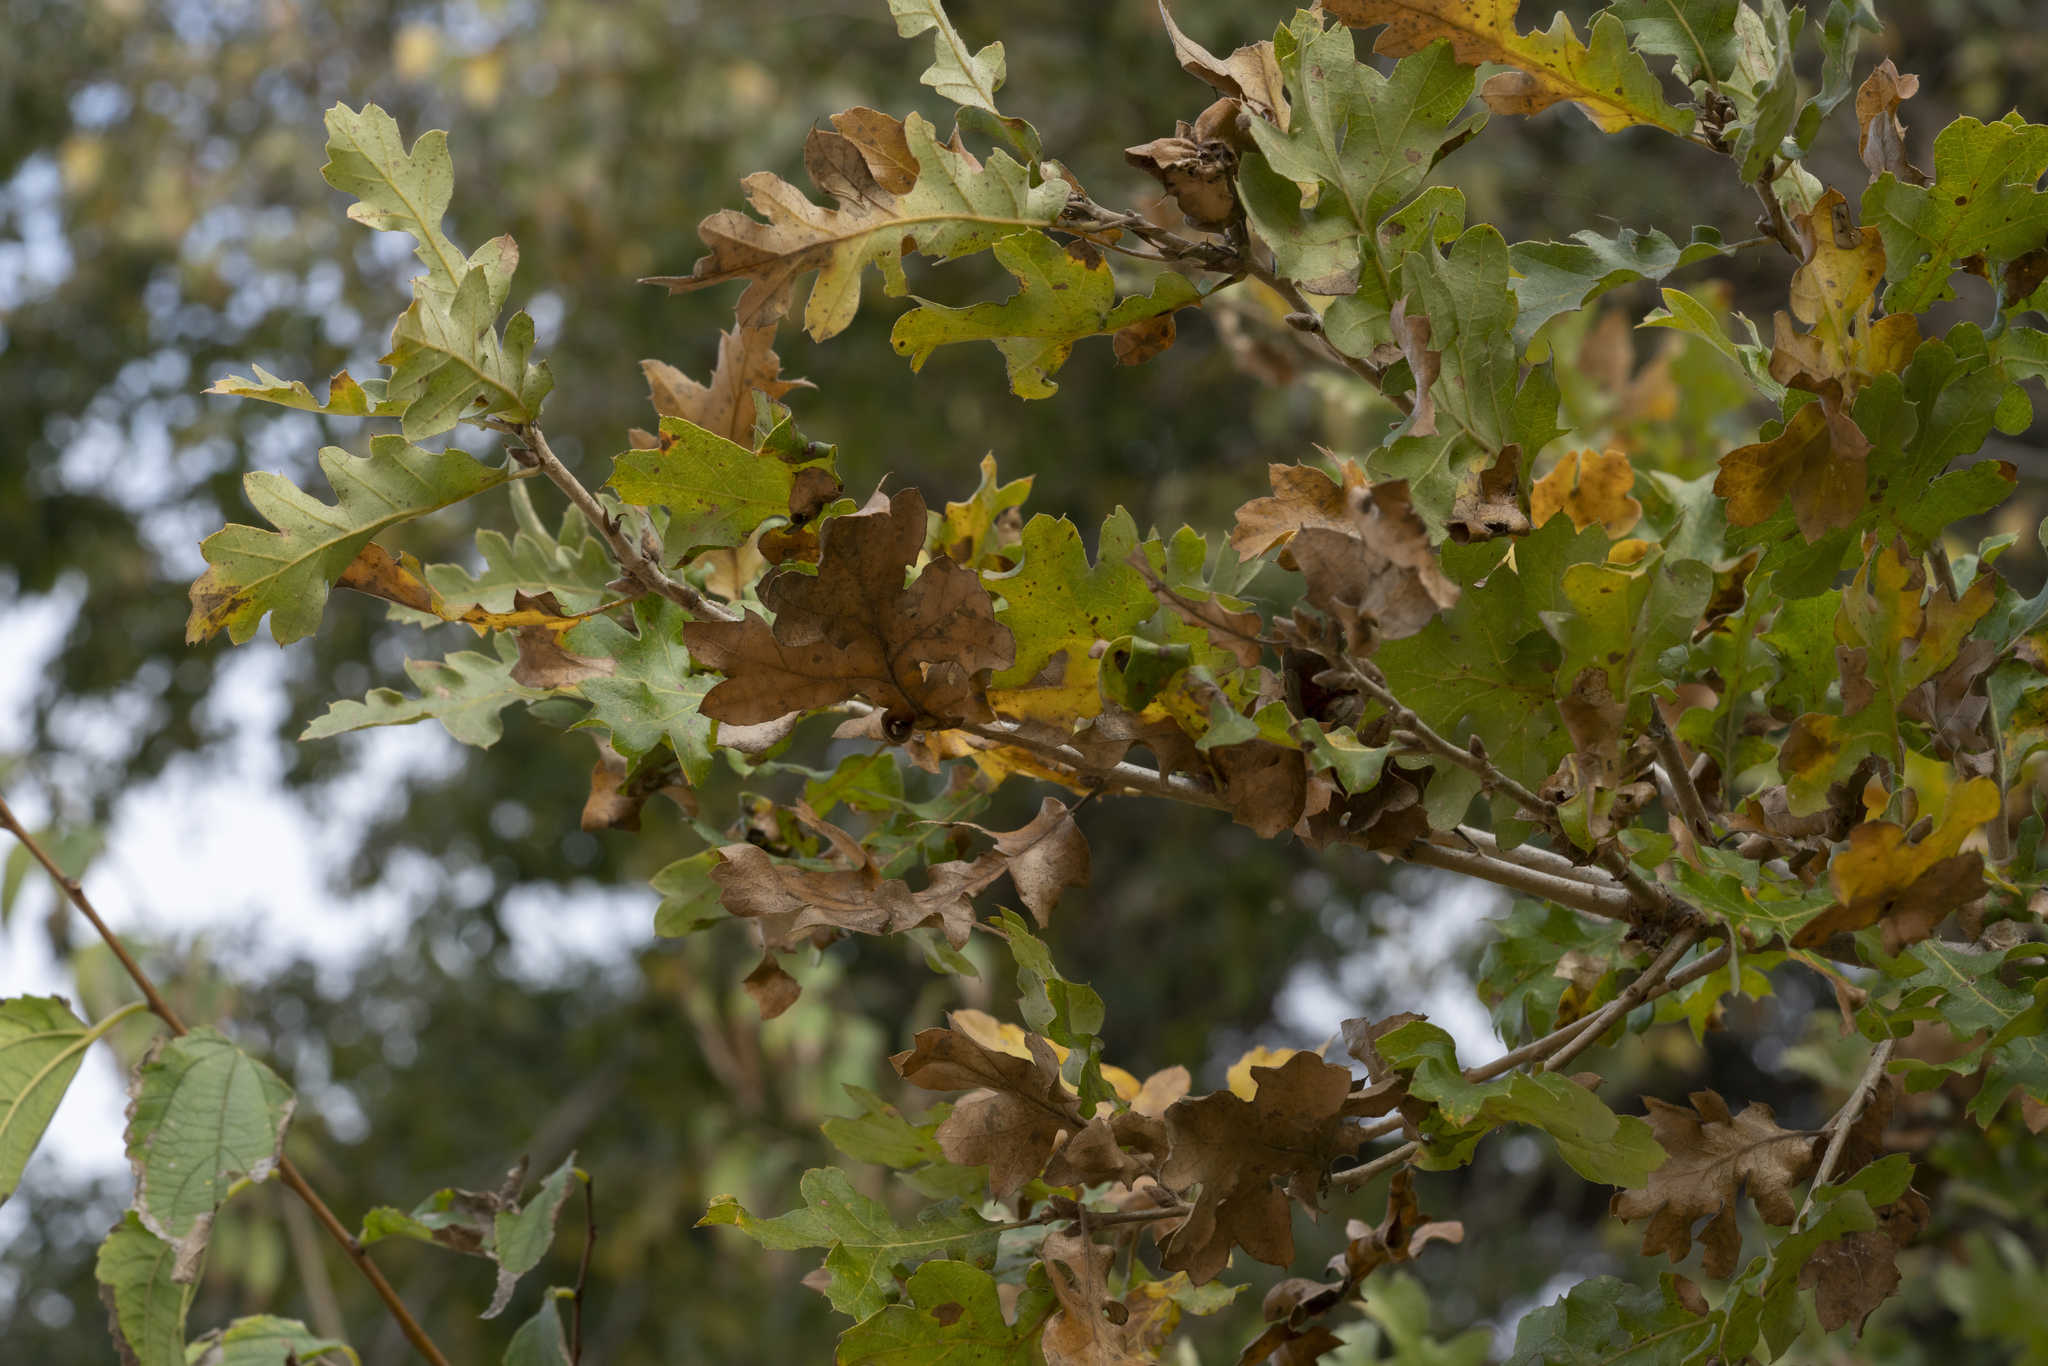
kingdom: Plantae
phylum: Tracheophyta
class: Magnoliopsida
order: Fagales
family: Fagaceae
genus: Quercus
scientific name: Quercus ithaburensis
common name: Tabor oak
